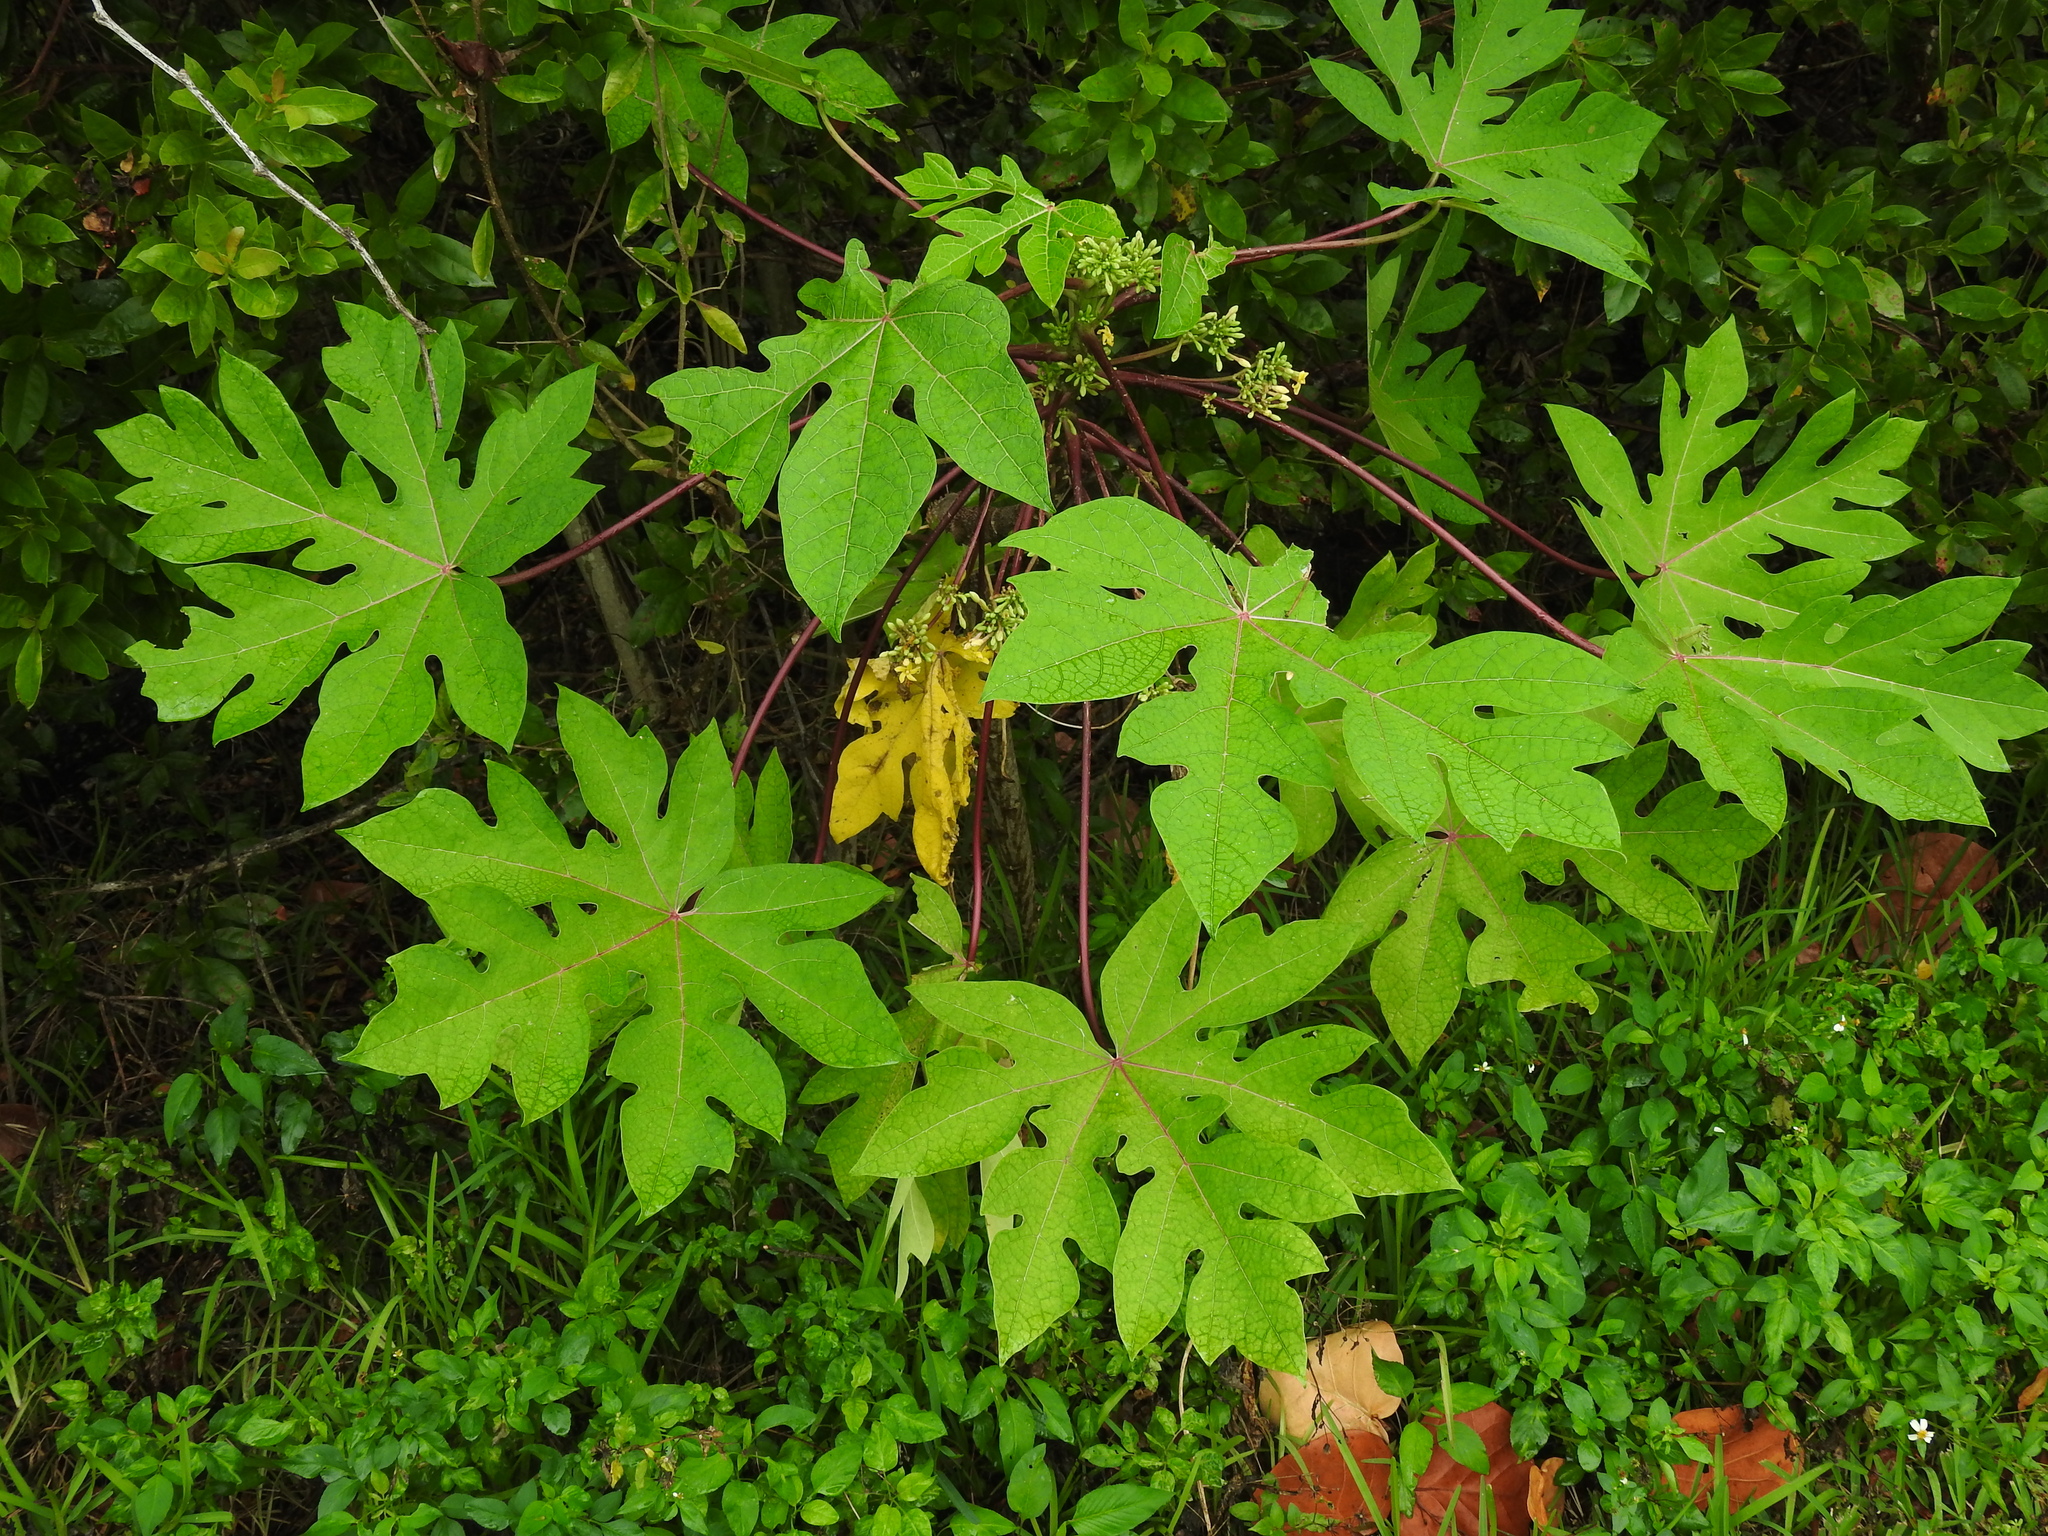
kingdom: Plantae
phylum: Tracheophyta
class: Magnoliopsida
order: Malpighiales
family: Euphorbiaceae
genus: Ricinus
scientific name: Ricinus communis
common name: Castor-oil-plant
